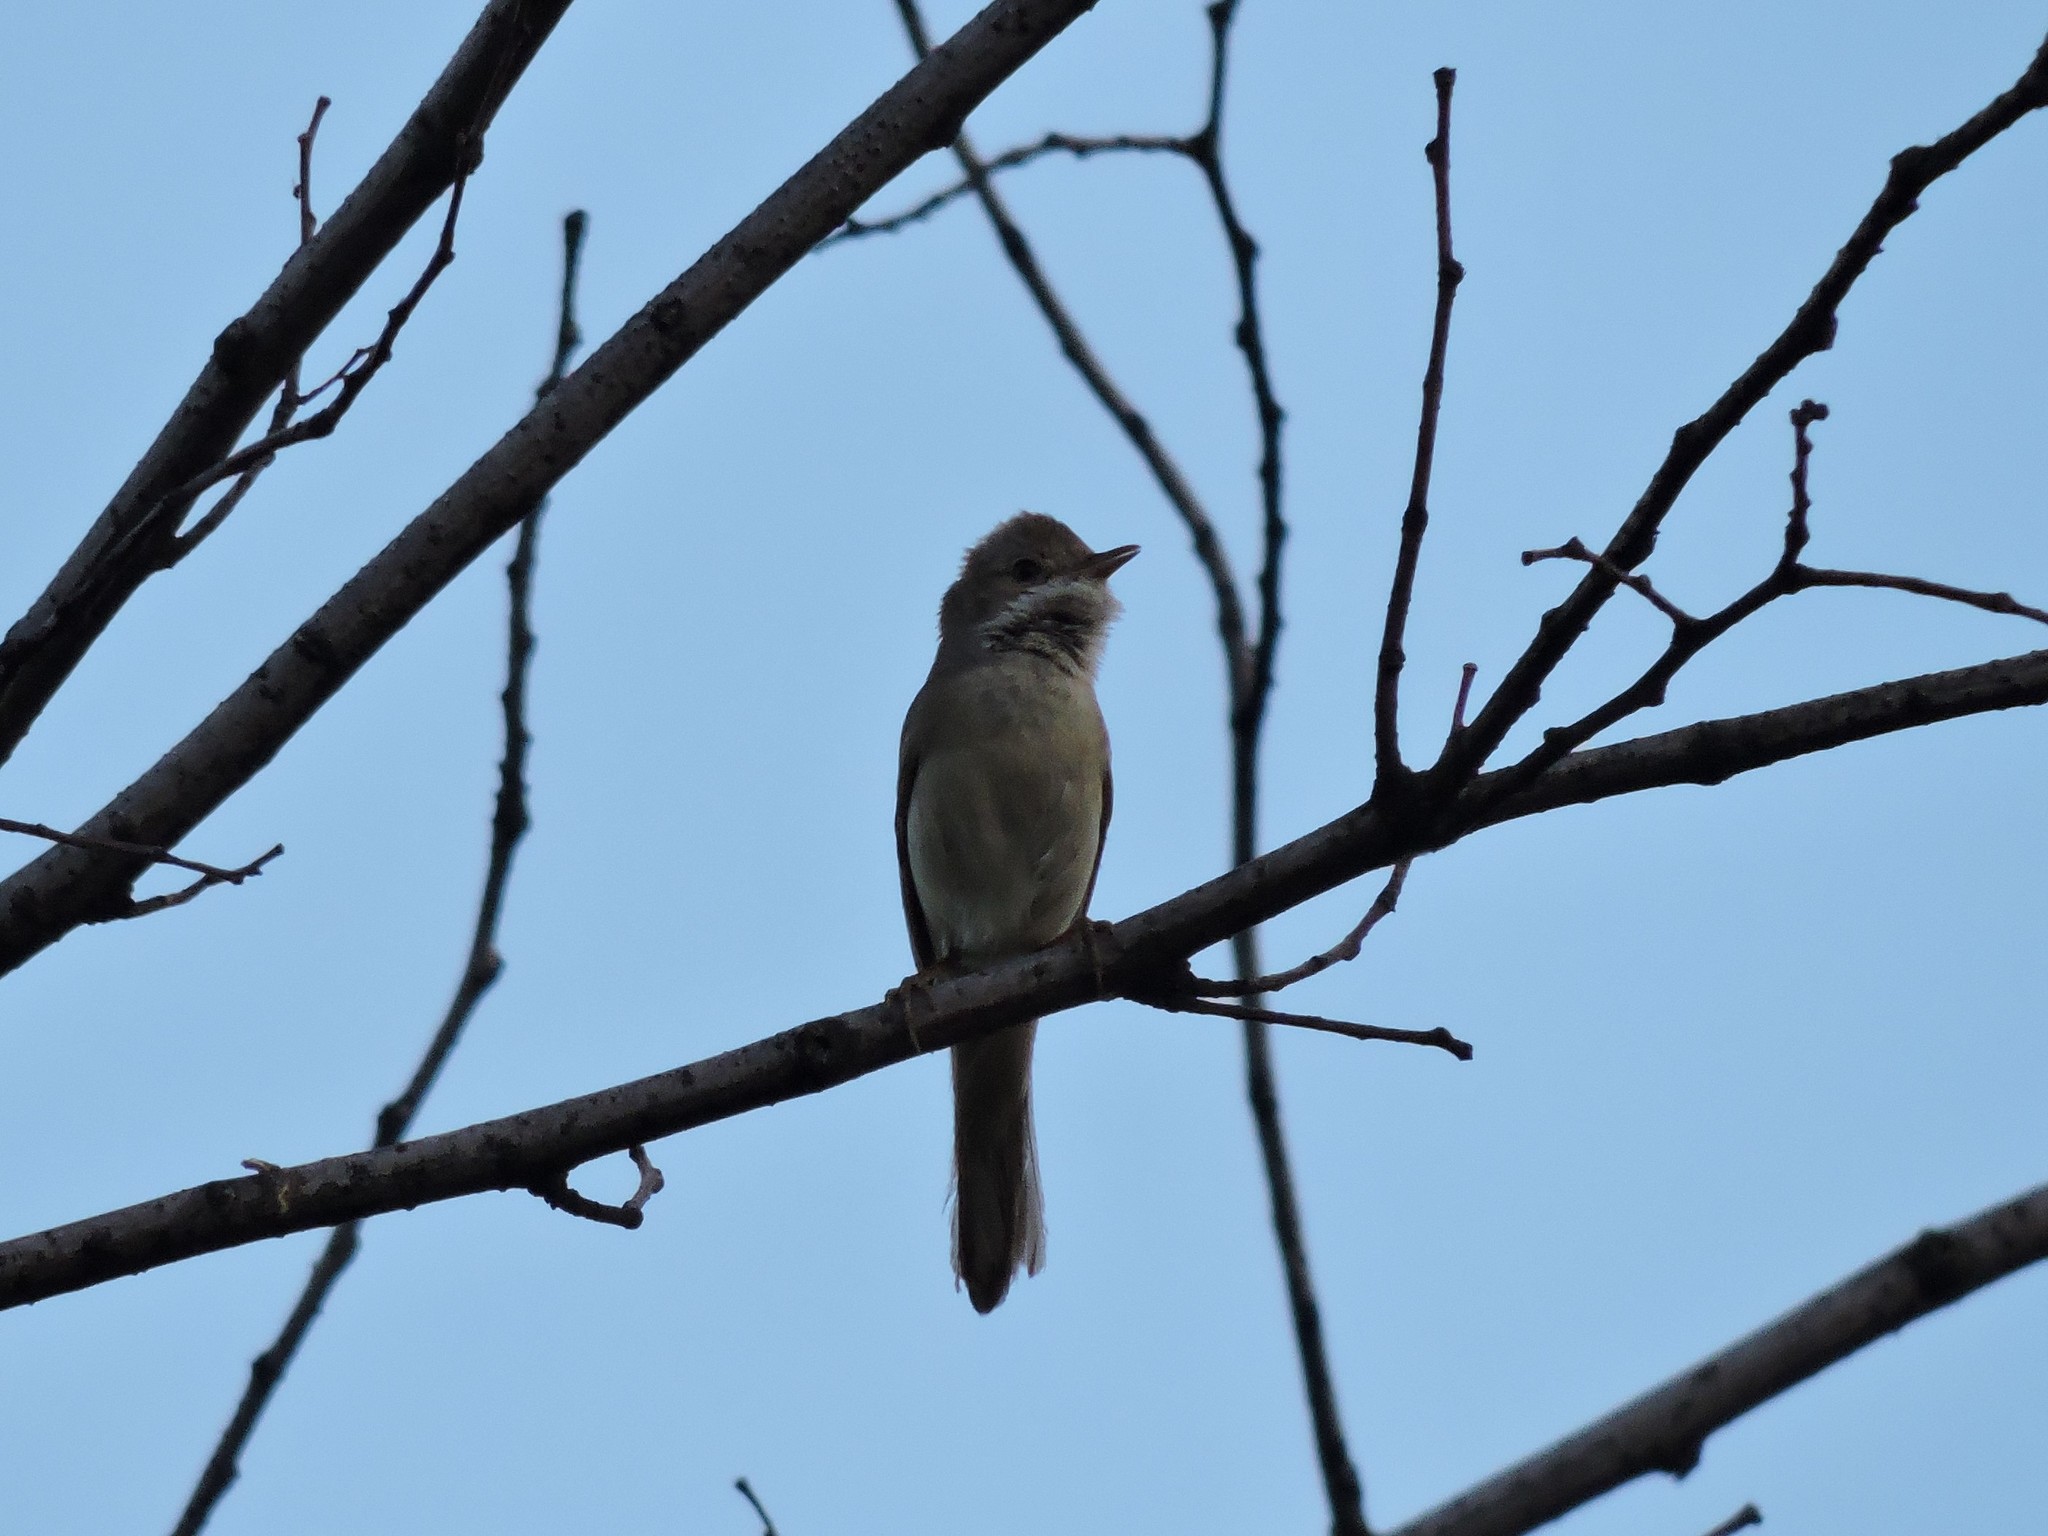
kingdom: Animalia
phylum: Chordata
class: Aves
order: Passeriformes
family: Sylviidae
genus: Sylvia
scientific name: Sylvia communis
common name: Common whitethroat
